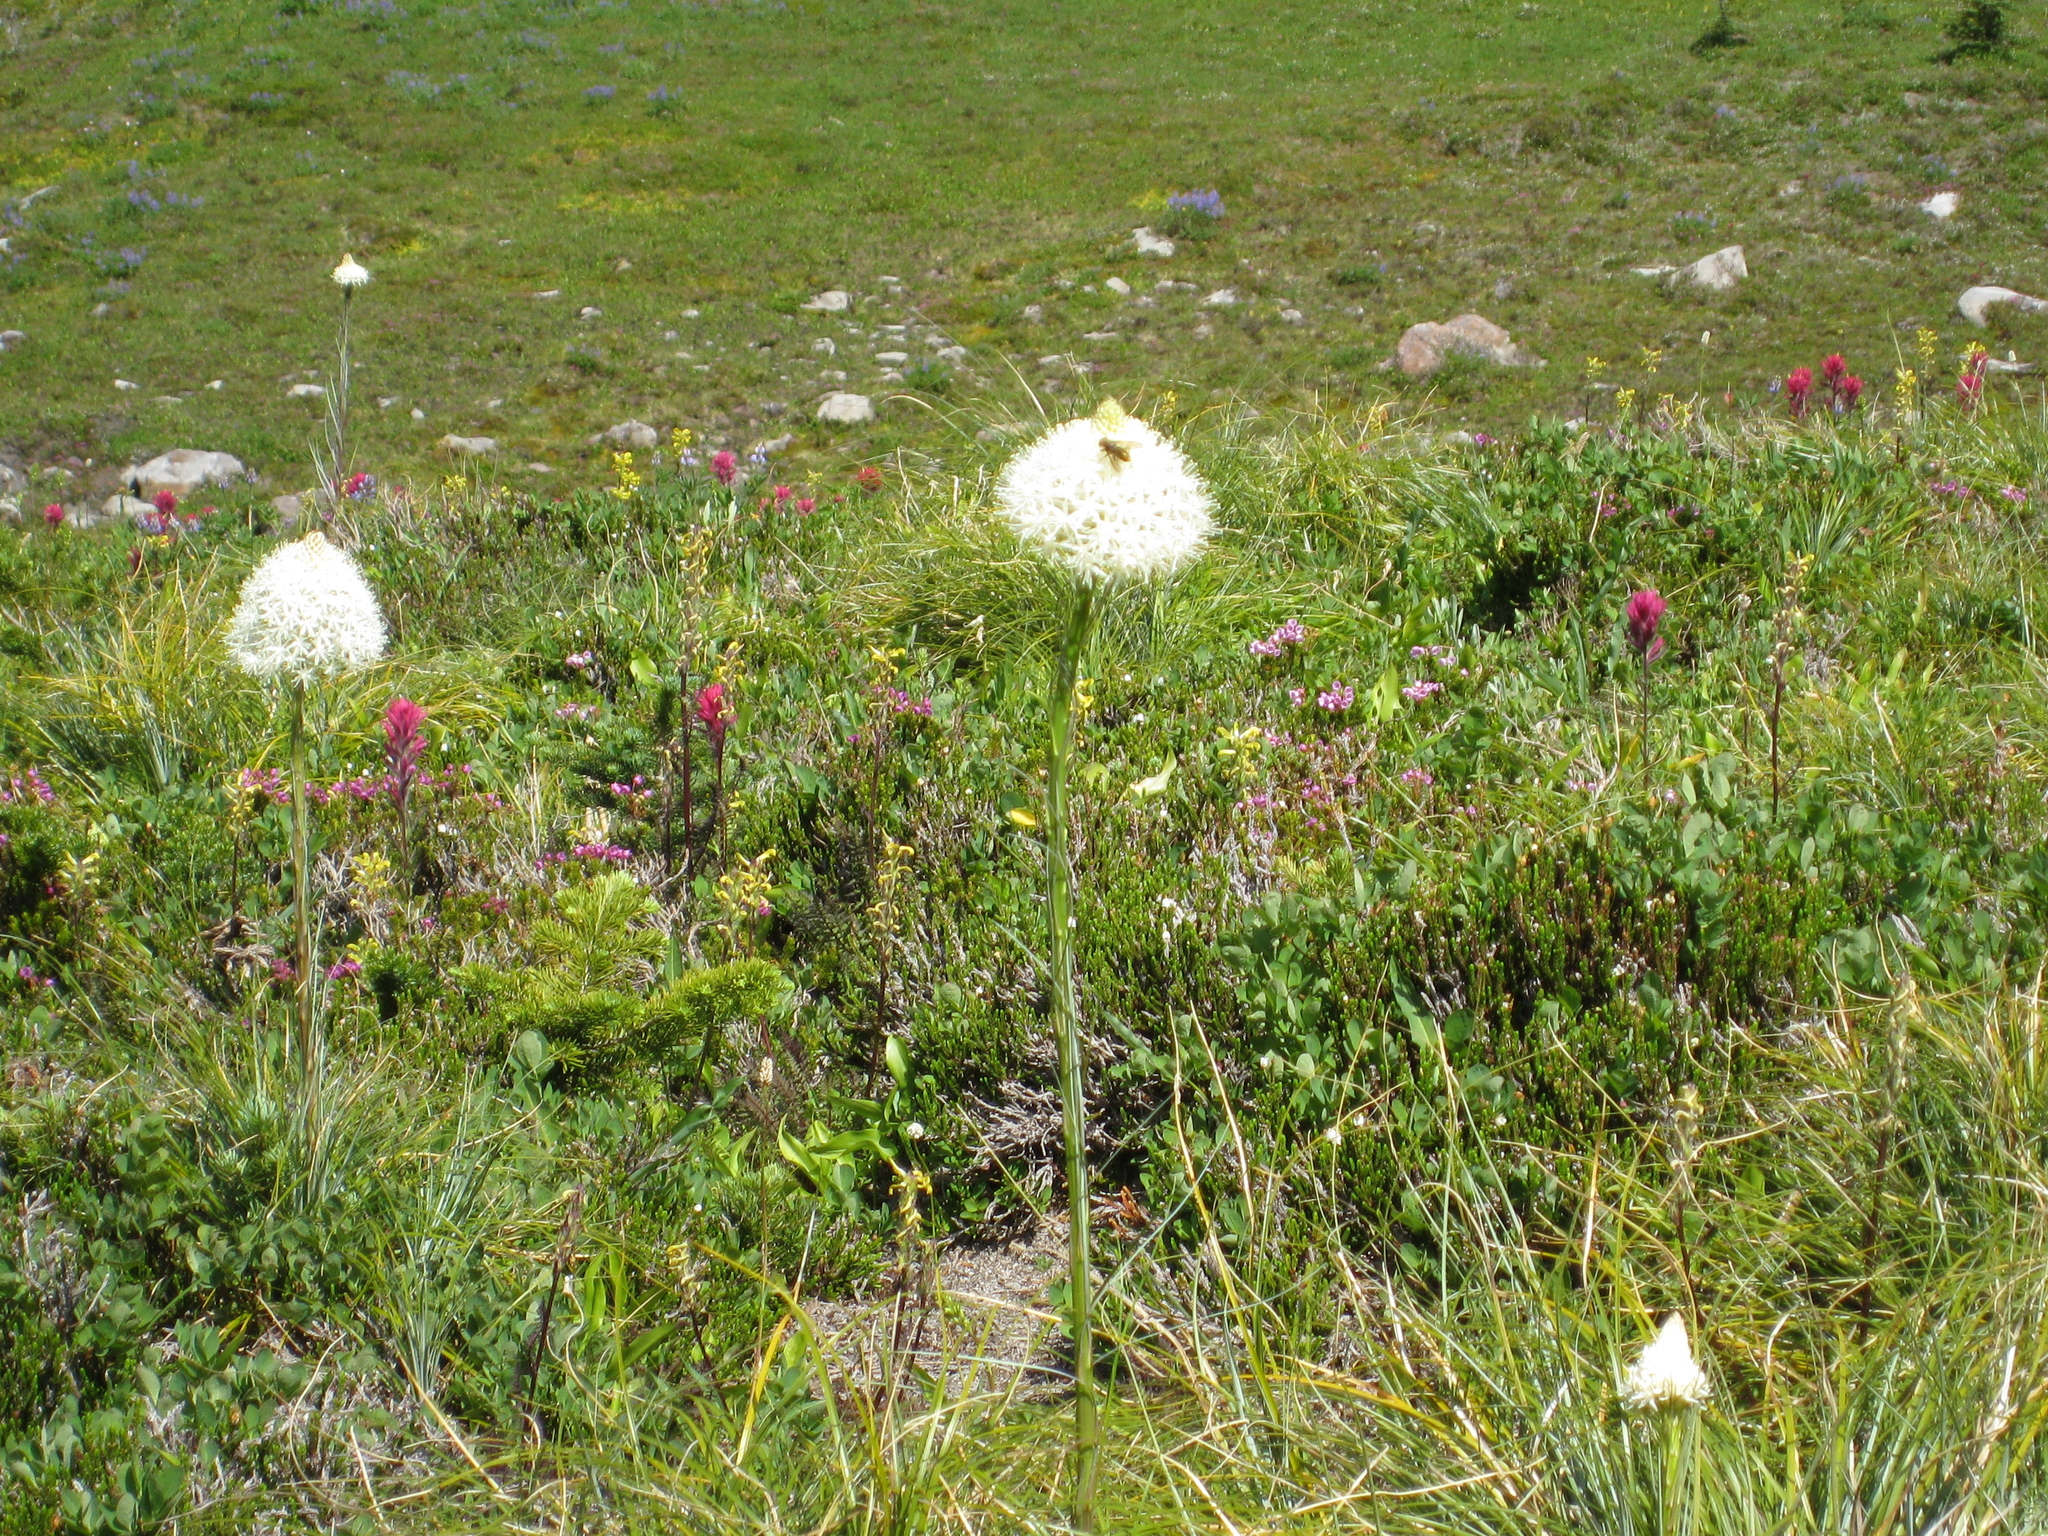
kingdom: Plantae
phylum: Tracheophyta
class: Liliopsida
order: Liliales
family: Melanthiaceae
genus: Xerophyllum
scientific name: Xerophyllum tenax
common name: Bear-grass
